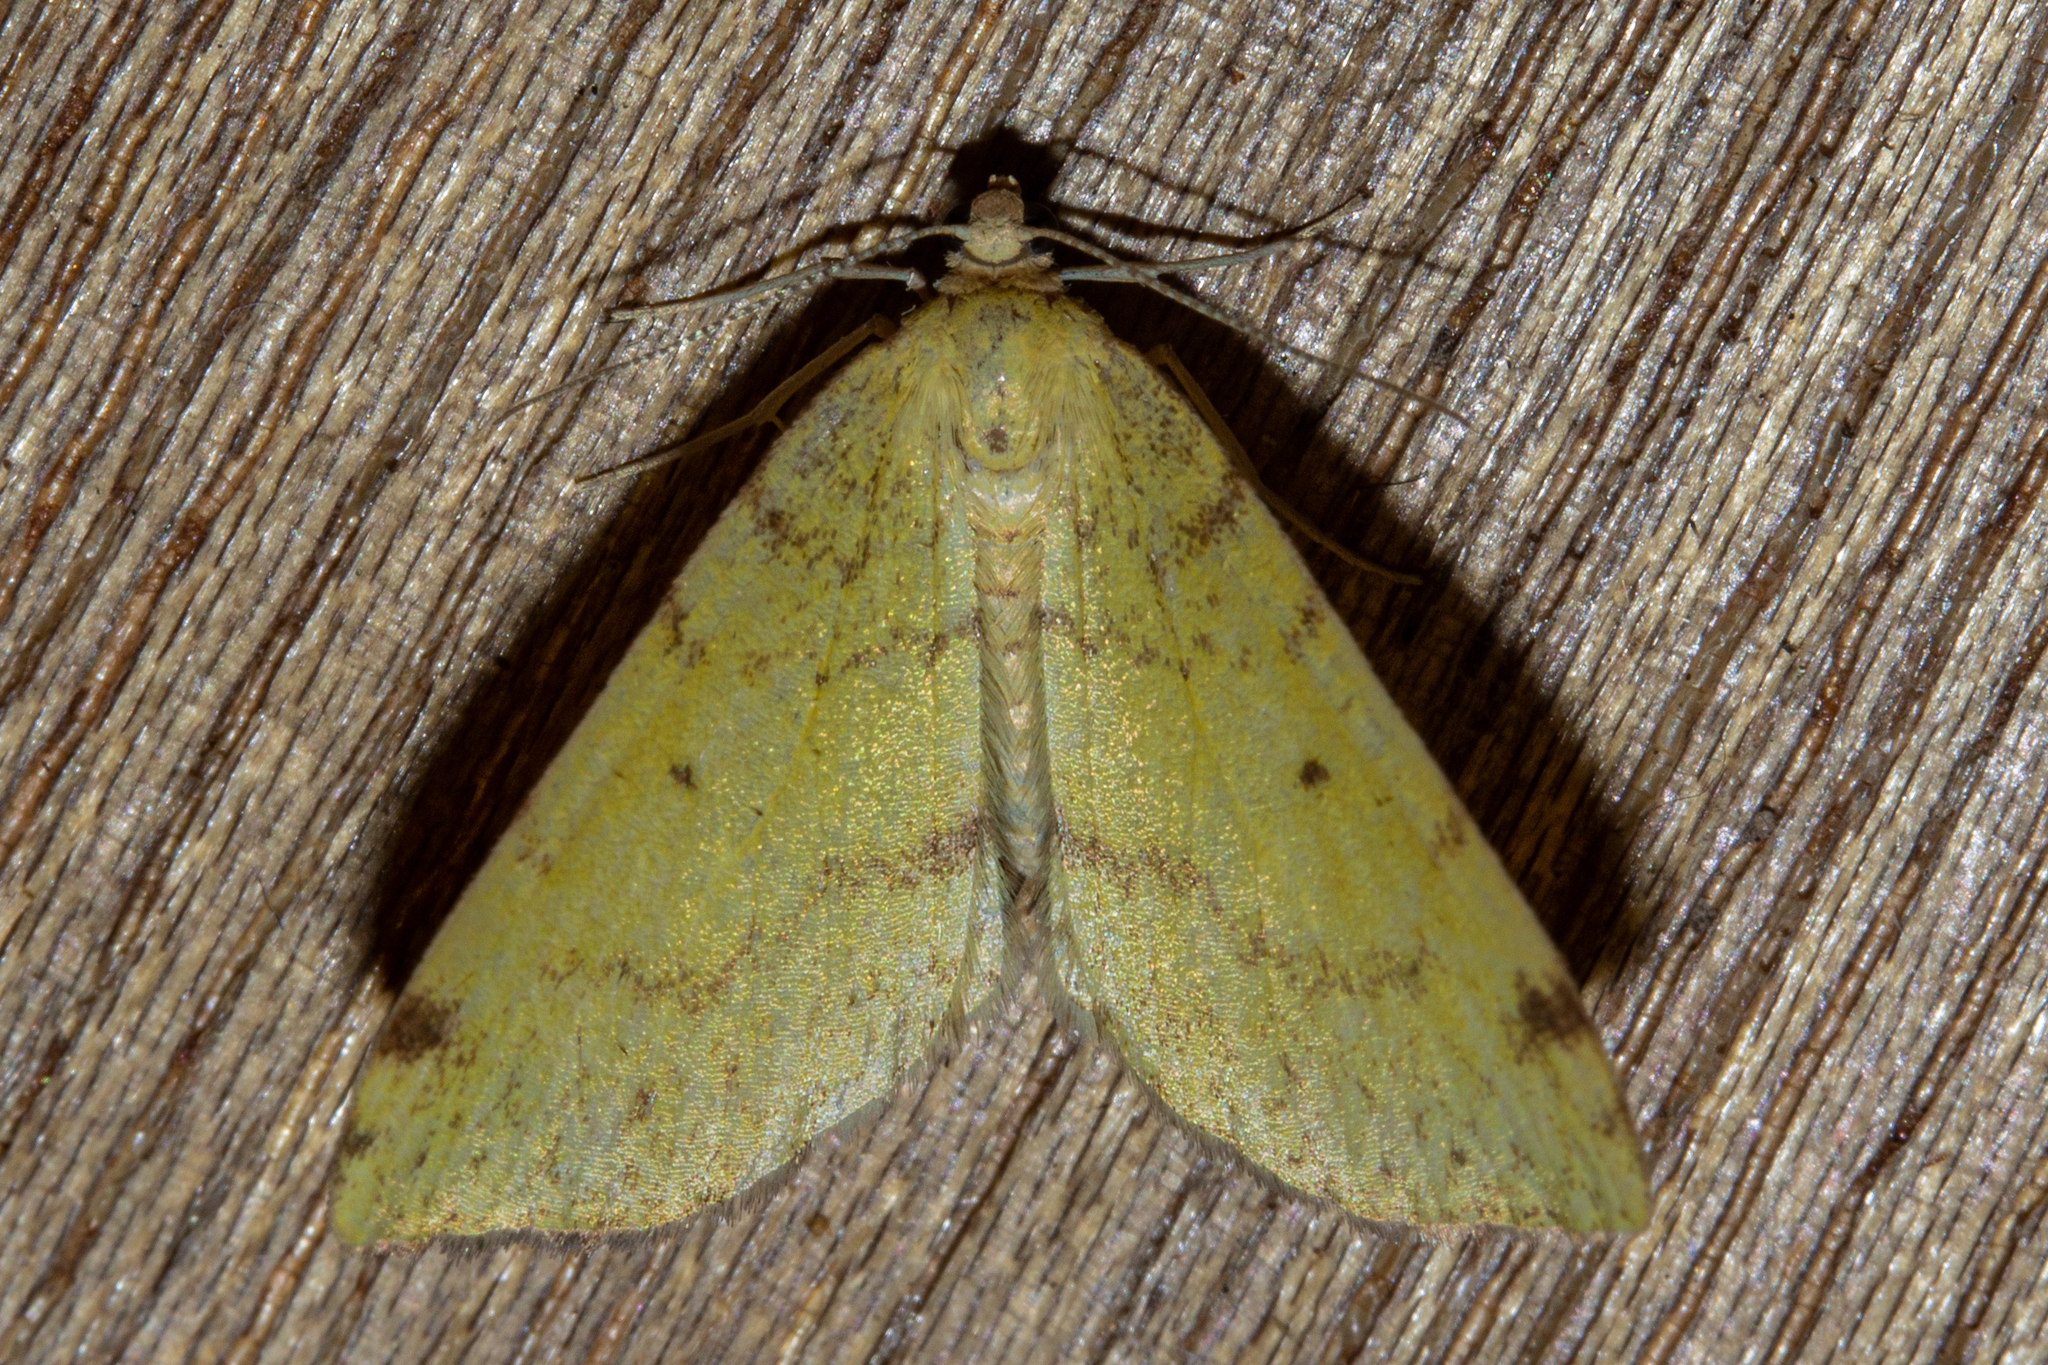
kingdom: Animalia
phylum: Arthropoda
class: Insecta
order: Lepidoptera
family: Geometridae
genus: Epiphryne
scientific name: Epiphryne undosata
